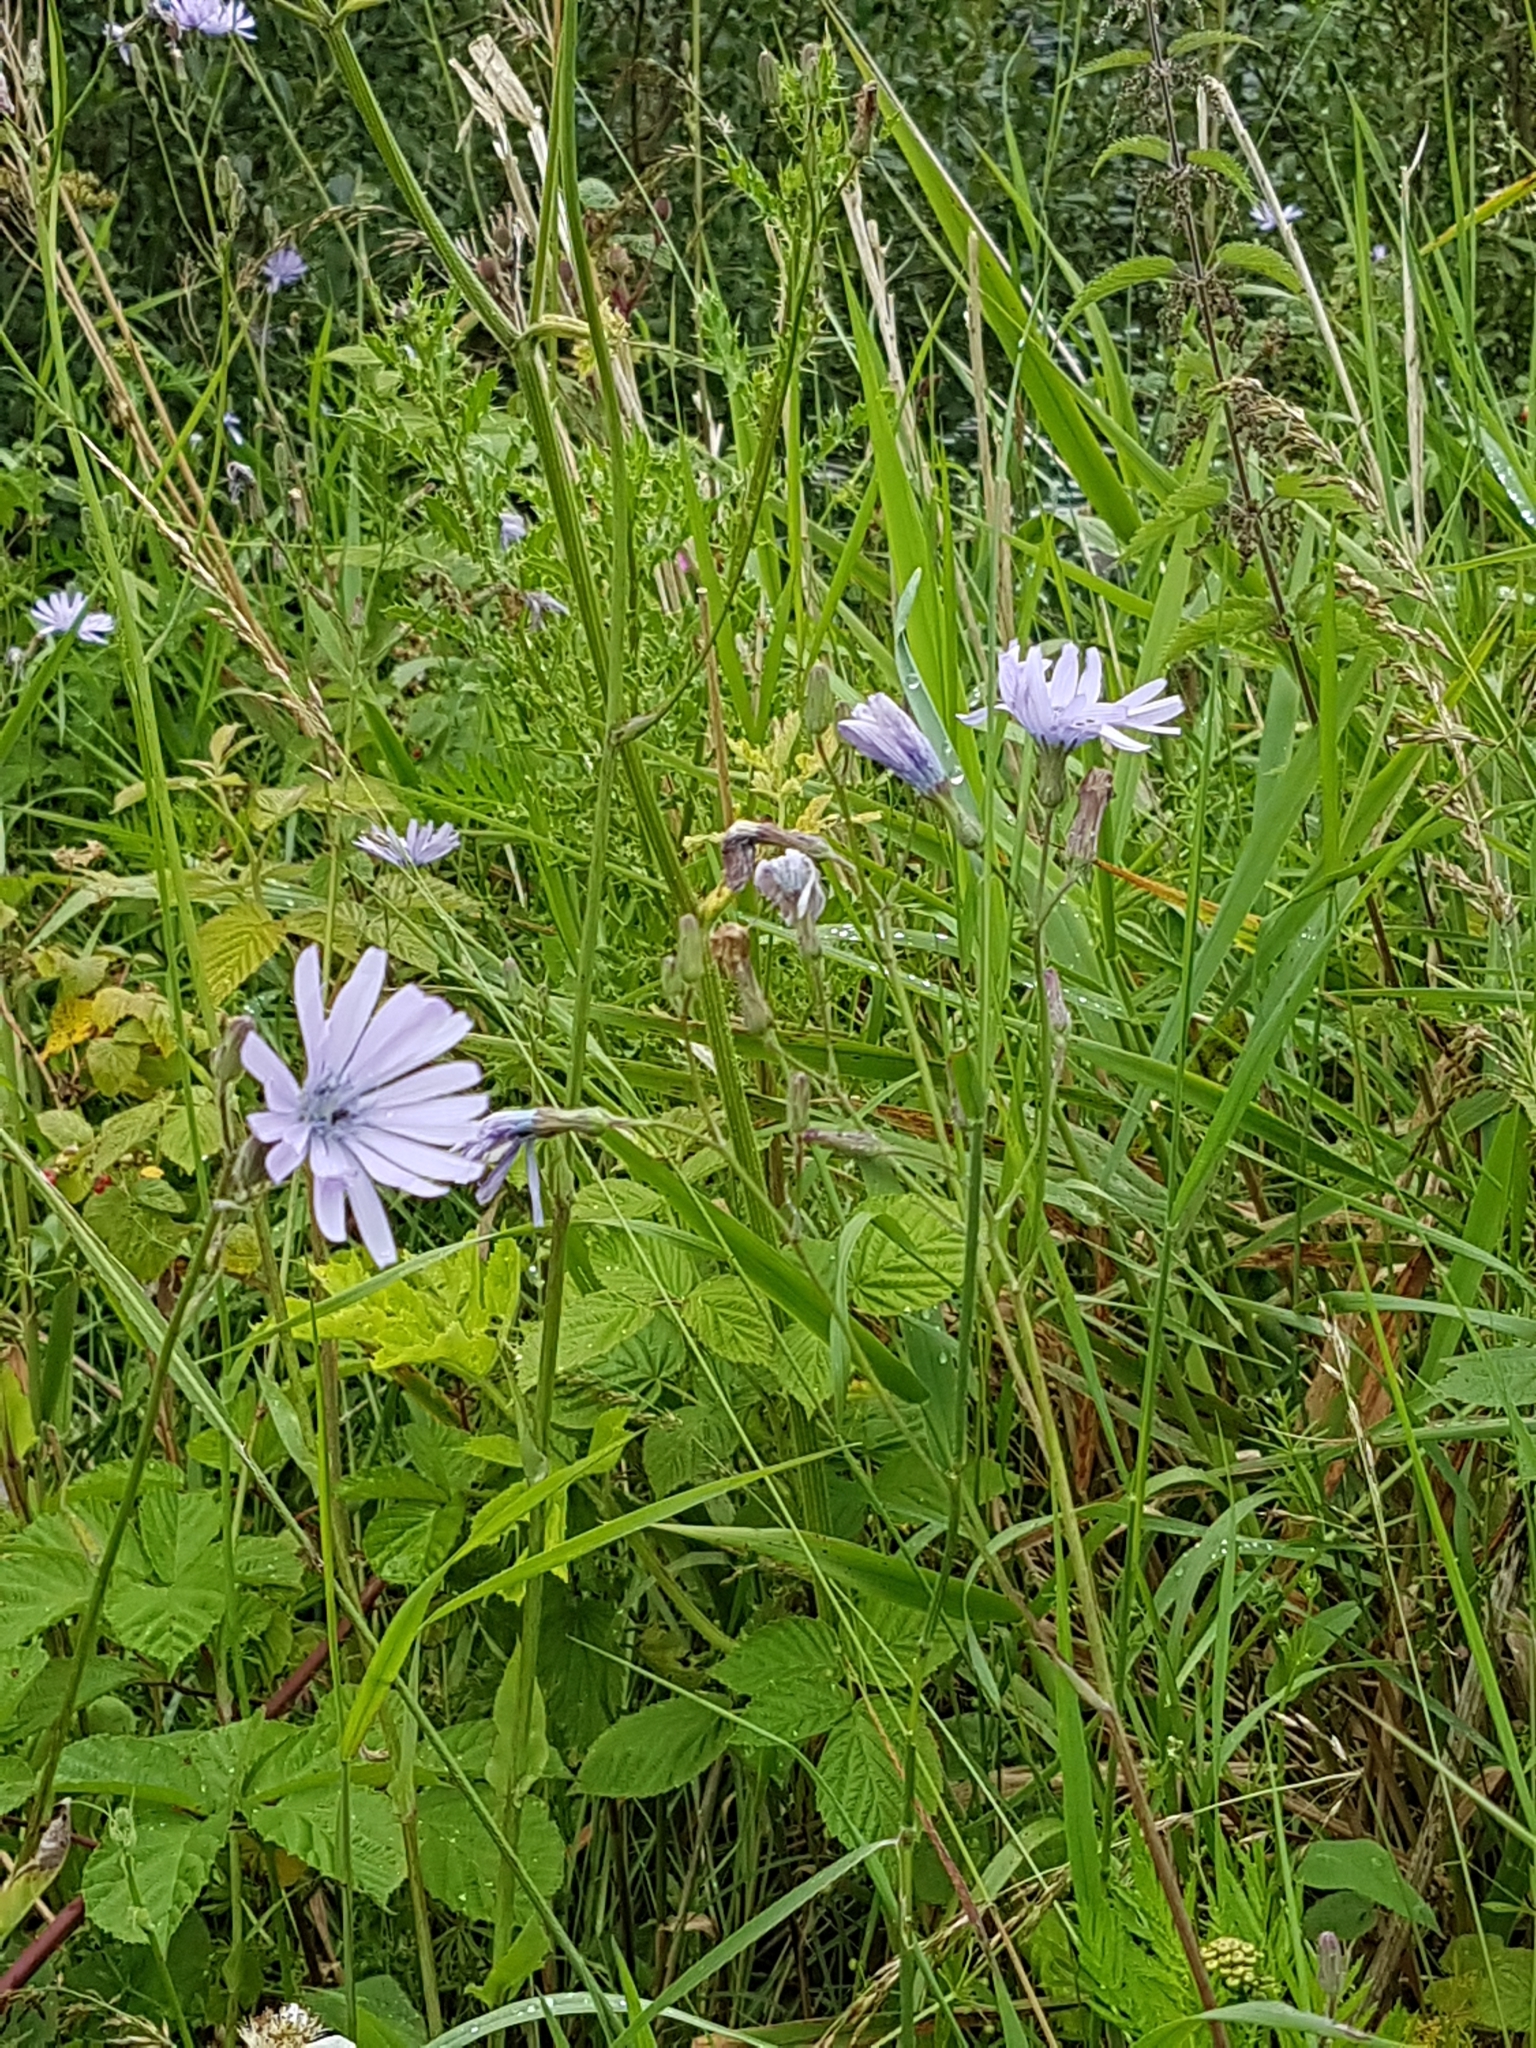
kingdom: Plantae
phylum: Tracheophyta
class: Magnoliopsida
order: Asterales
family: Asteraceae
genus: Lactuca
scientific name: Lactuca macrophylla
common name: Common blue-sow-thistle
